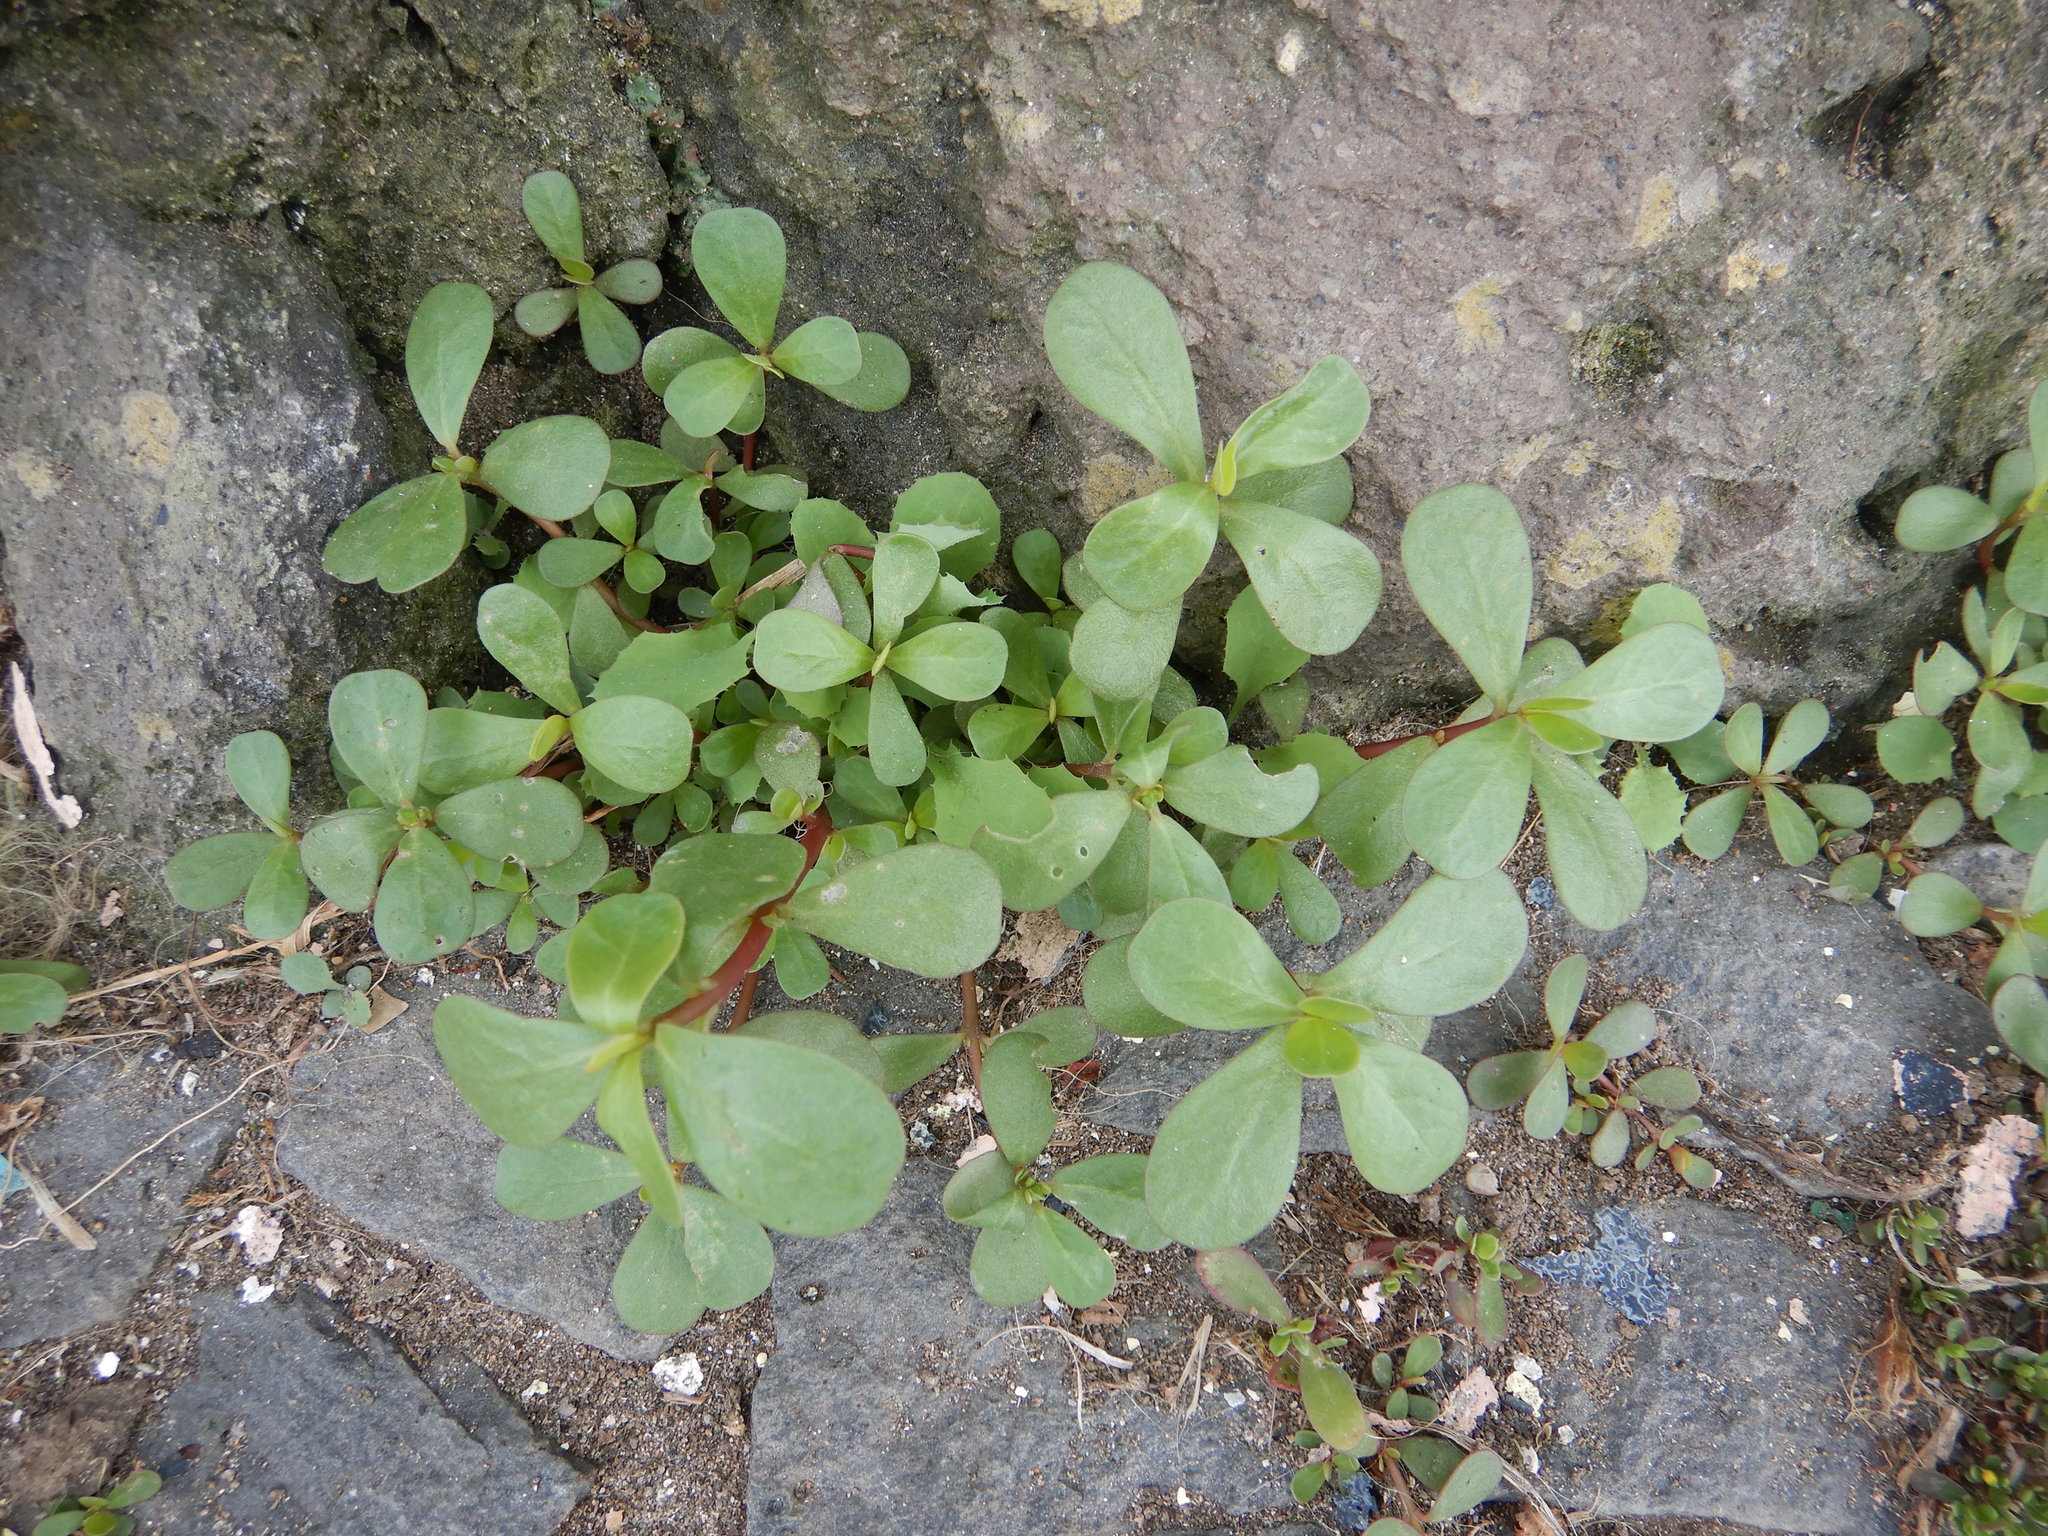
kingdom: Plantae
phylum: Tracheophyta
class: Magnoliopsida
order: Caryophyllales
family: Portulacaceae
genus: Portulaca
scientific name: Portulaca oleracea
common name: Common purslane
